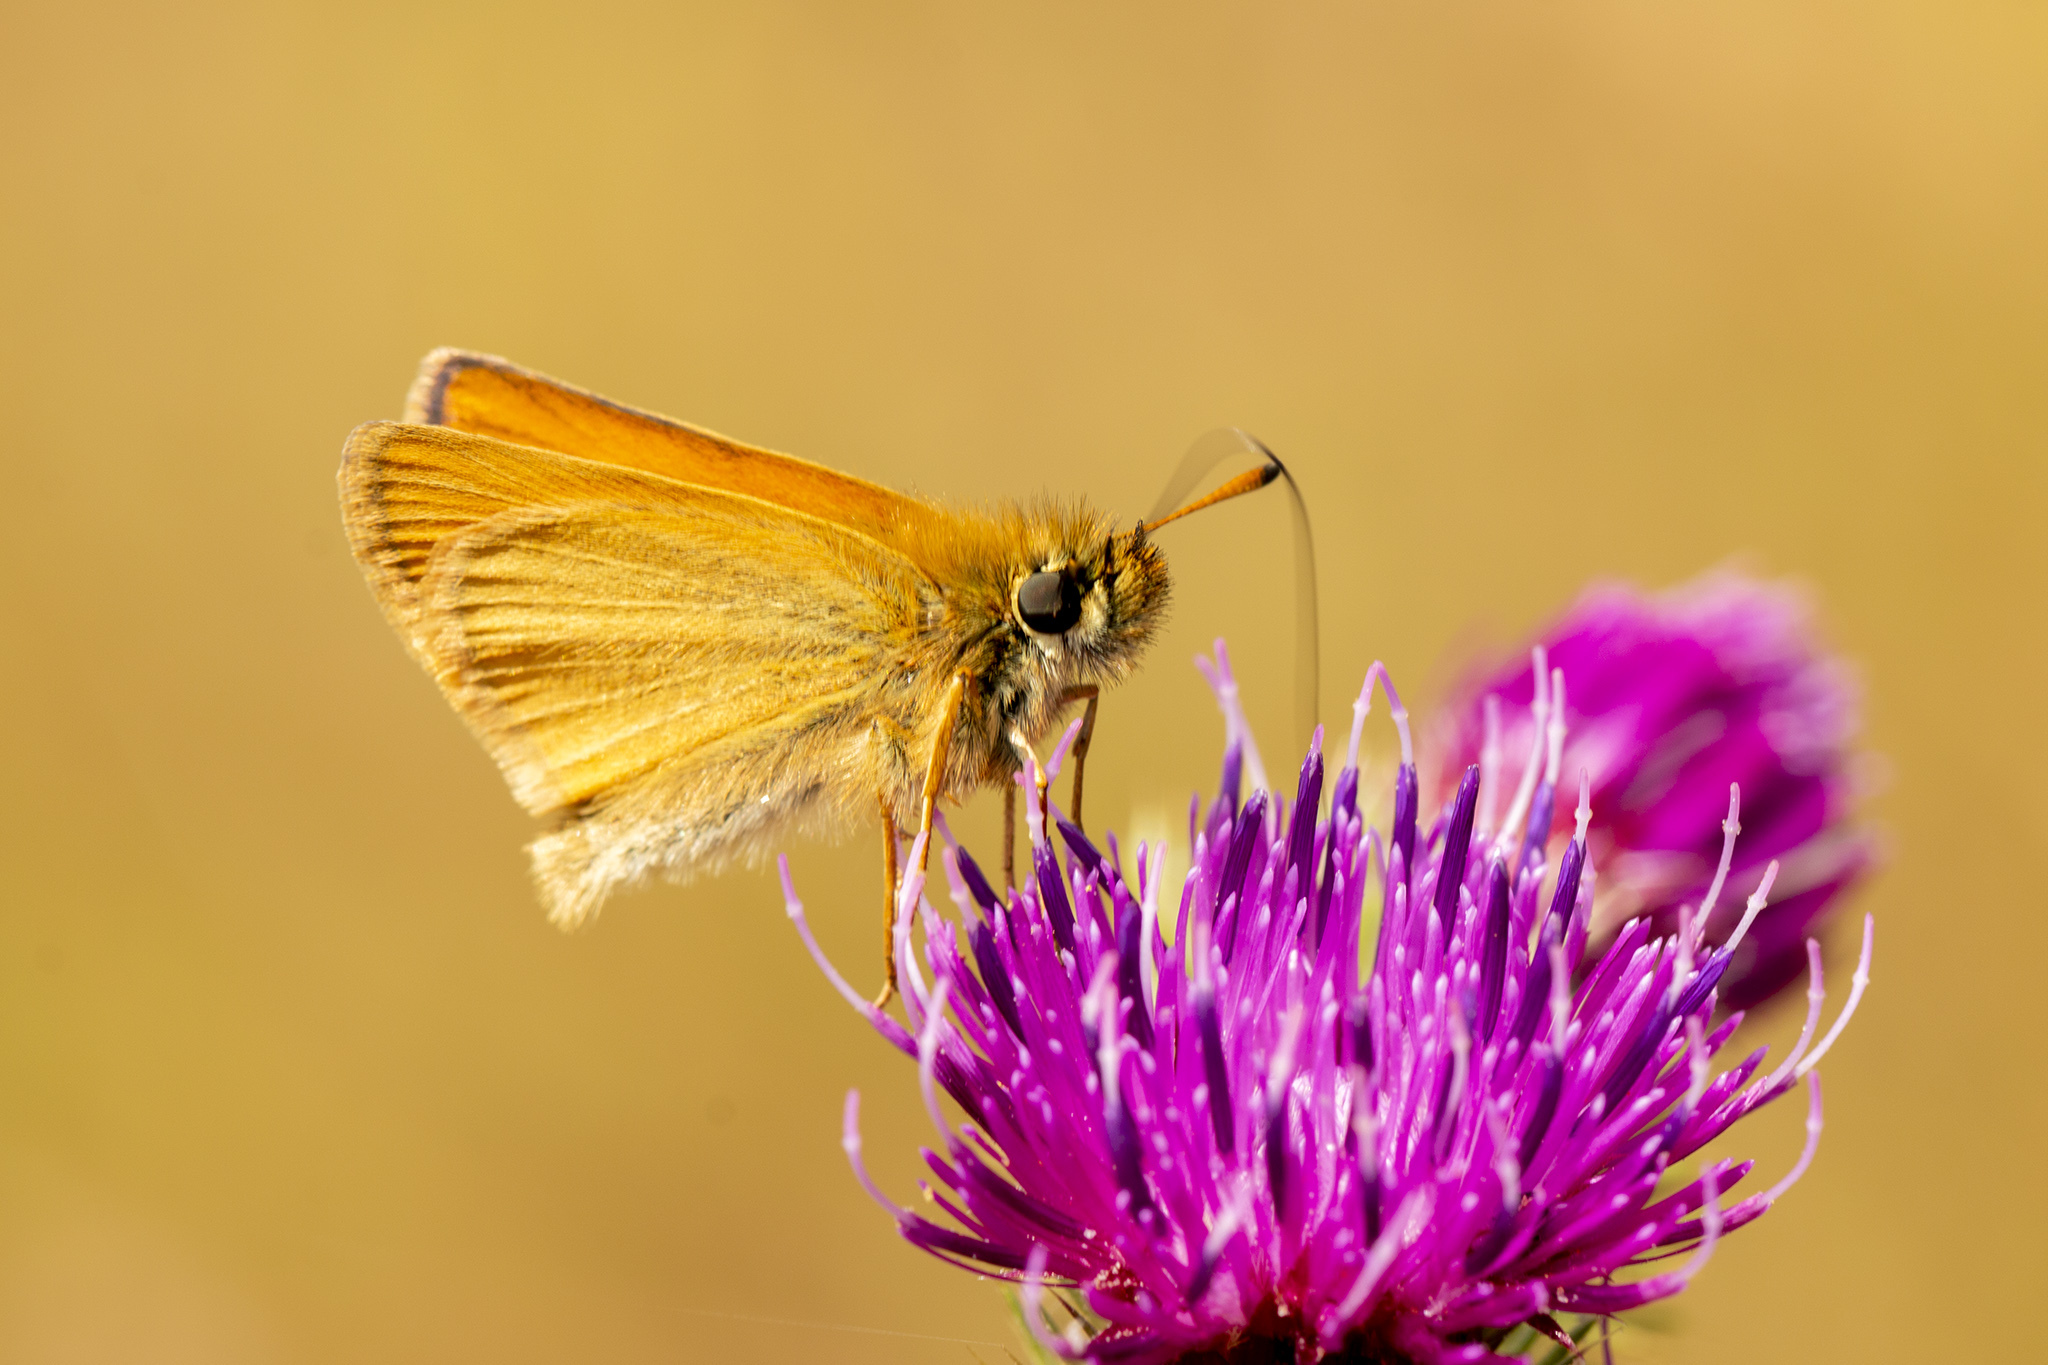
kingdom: Animalia
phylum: Arthropoda
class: Insecta
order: Lepidoptera
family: Hesperiidae
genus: Thymelicus
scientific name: Thymelicus lineola
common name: Essex skipper
